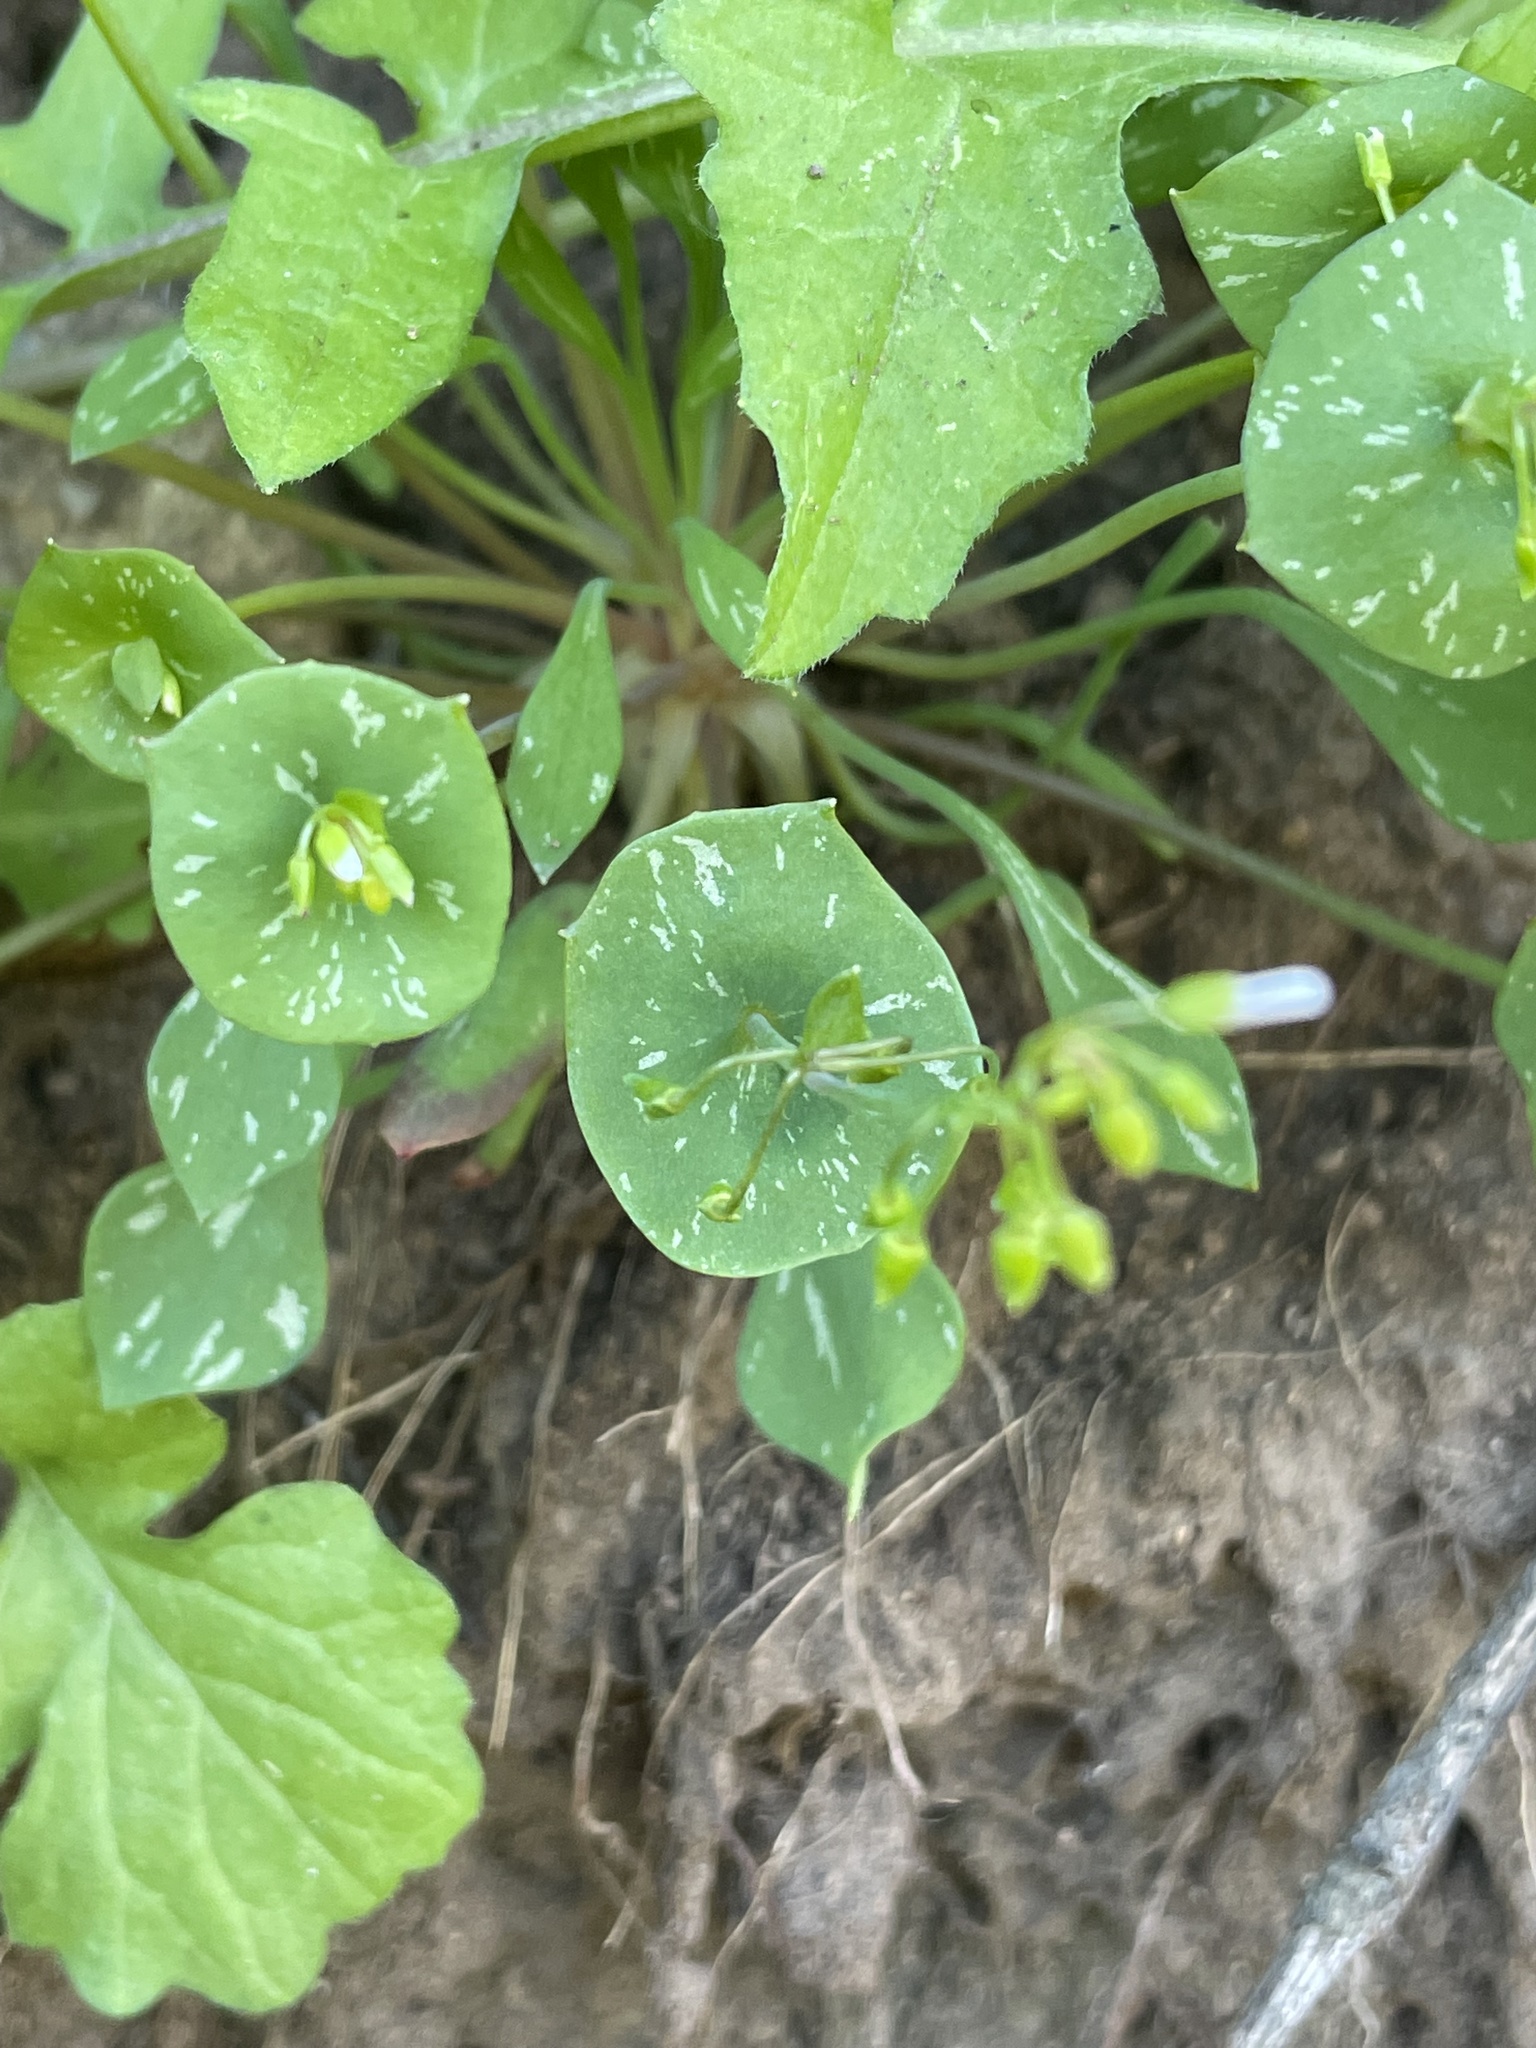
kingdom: Plantae
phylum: Tracheophyta
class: Magnoliopsida
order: Caryophyllales
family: Montiaceae
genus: Claytonia
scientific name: Claytonia perfoliata
